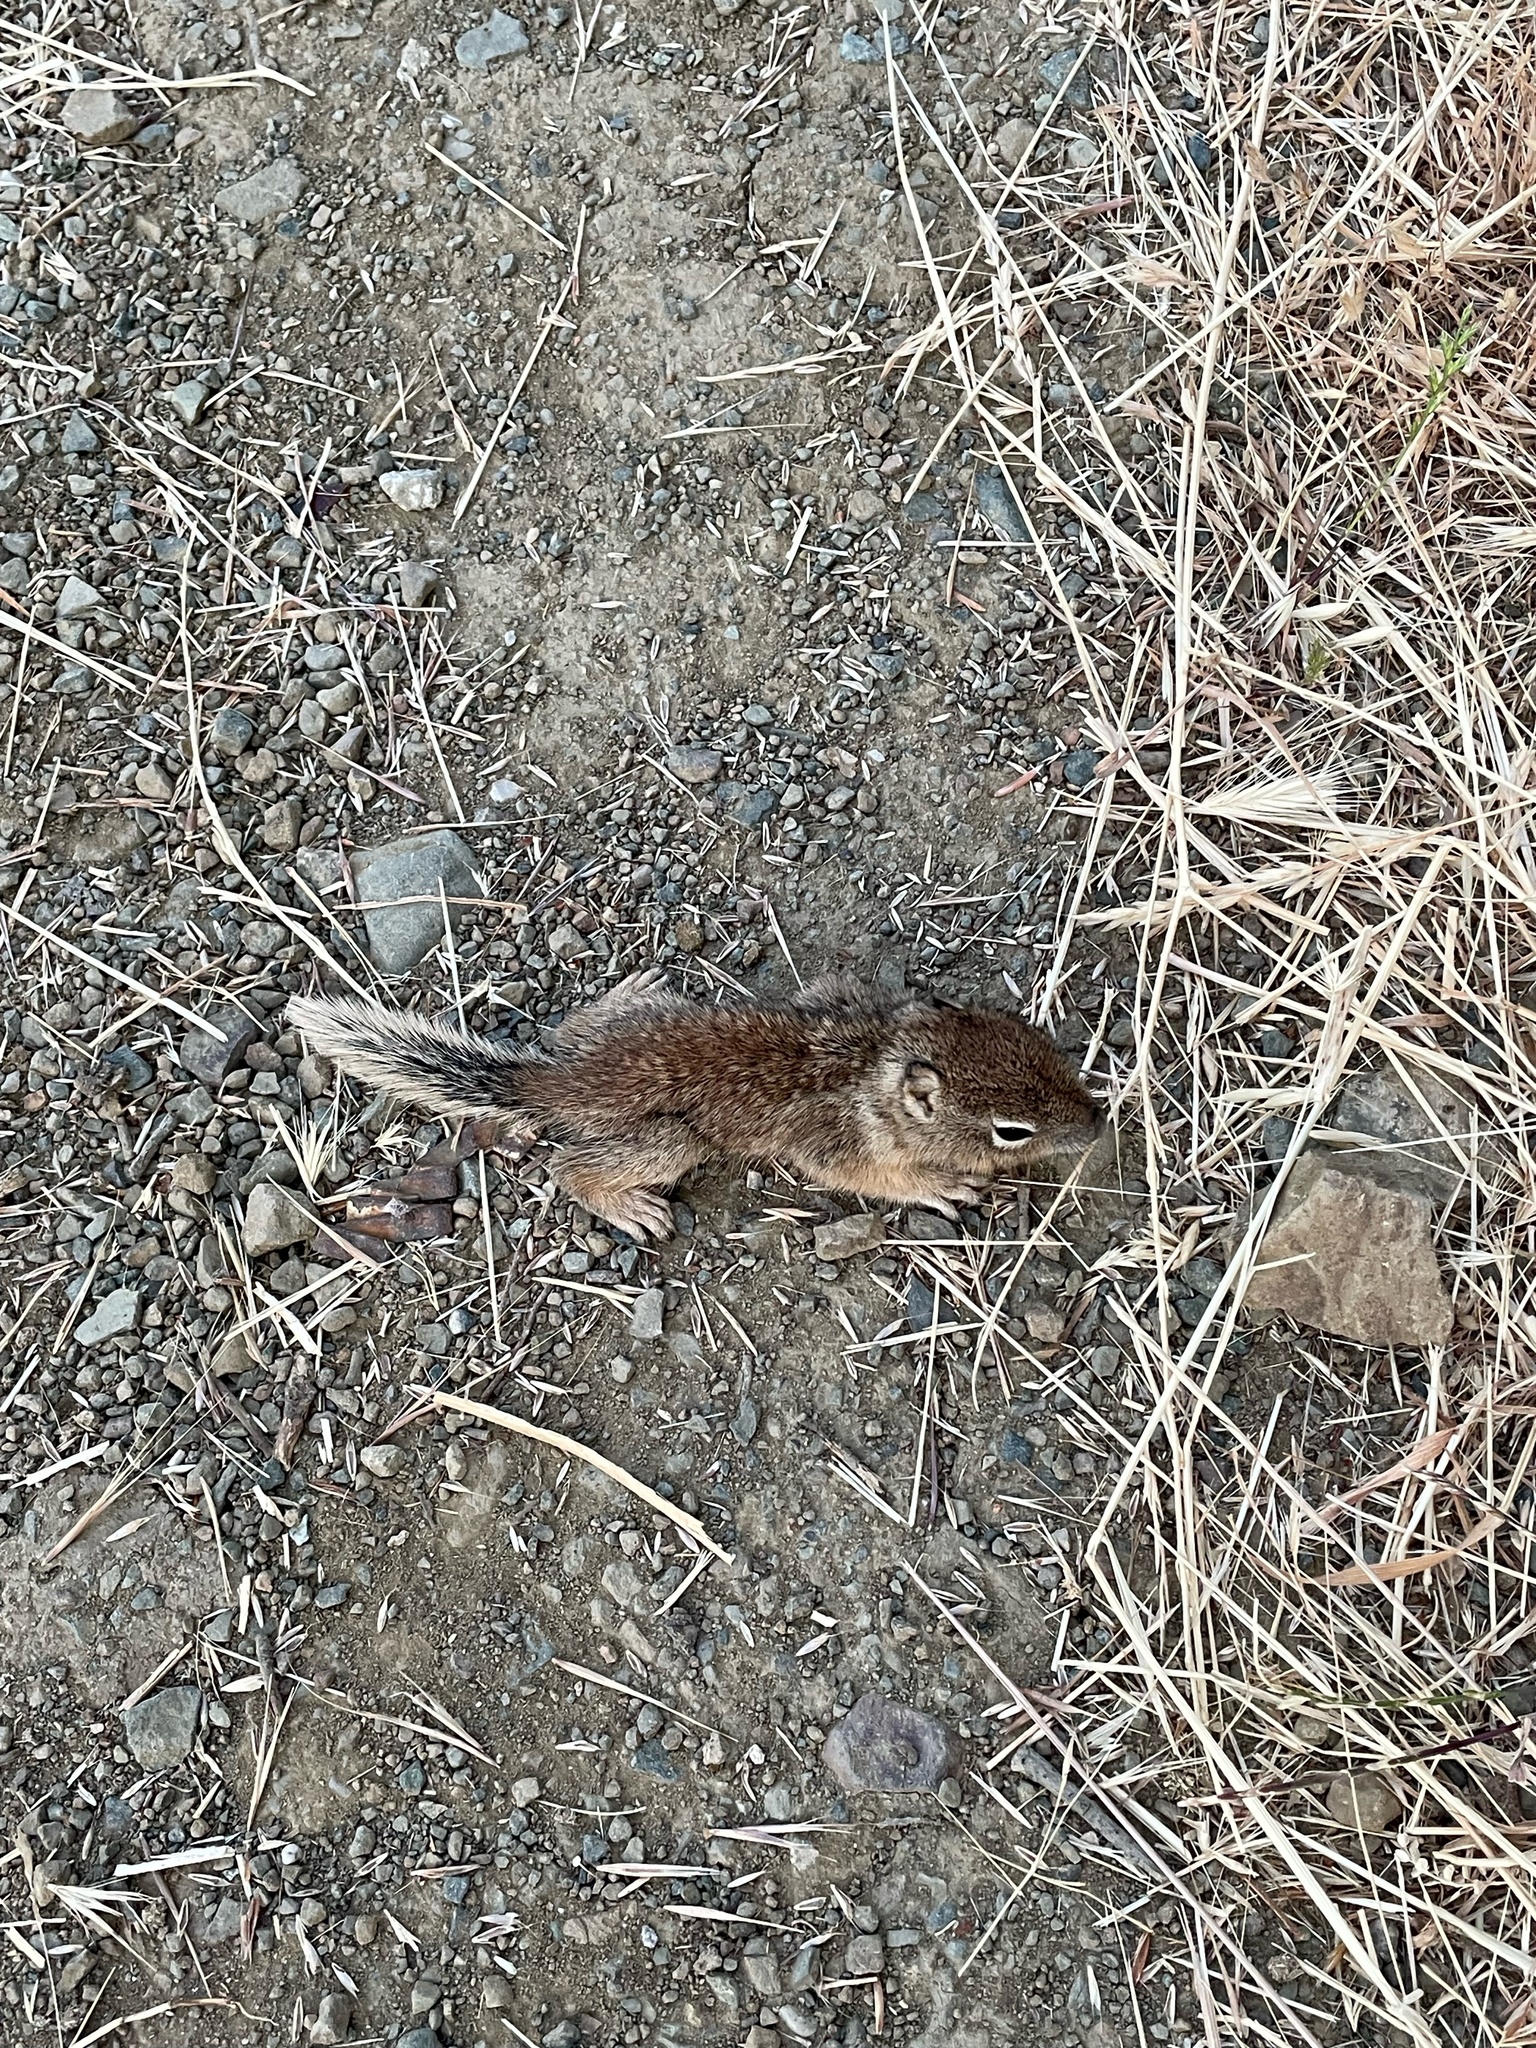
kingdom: Animalia
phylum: Chordata
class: Mammalia
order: Rodentia
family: Sciuridae
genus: Otospermophilus
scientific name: Otospermophilus beecheyi
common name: California ground squirrel
